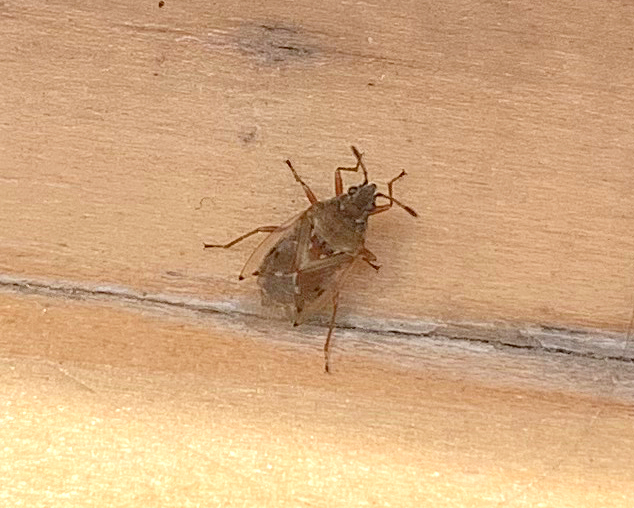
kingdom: Animalia
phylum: Arthropoda
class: Insecta
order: Hemiptera
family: Lygaeidae
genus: Kleidocerys
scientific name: Kleidocerys resedae
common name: Birch catkin bug
